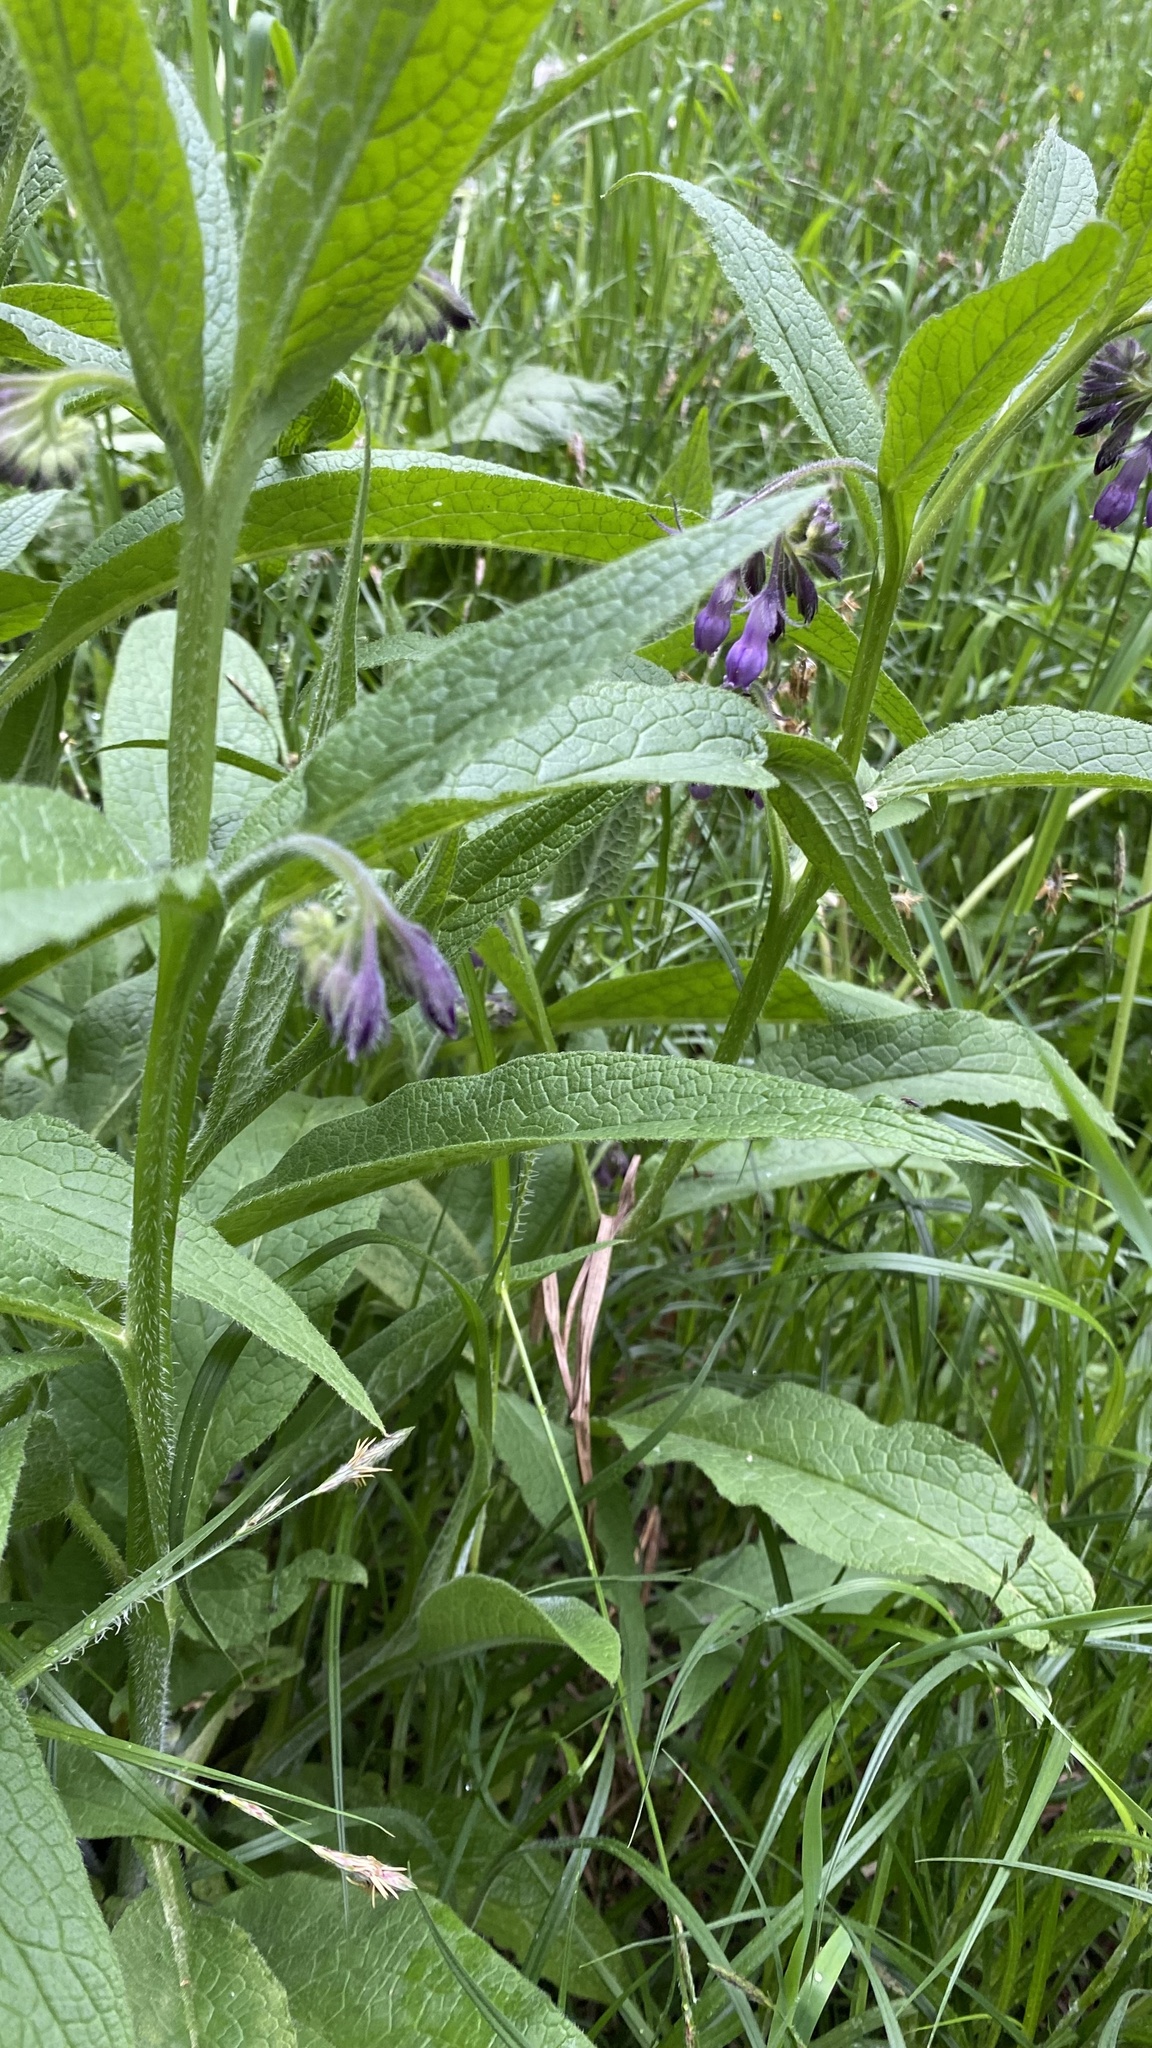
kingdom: Plantae
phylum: Tracheophyta
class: Magnoliopsida
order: Boraginales
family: Boraginaceae
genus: Symphytum
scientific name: Symphytum officinale
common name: Common comfrey
